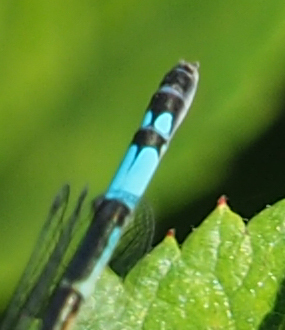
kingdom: Animalia
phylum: Arthropoda
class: Insecta
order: Odonata
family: Coenagrionidae
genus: Enallagma
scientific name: Enallagma aspersum
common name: Azure bluet
